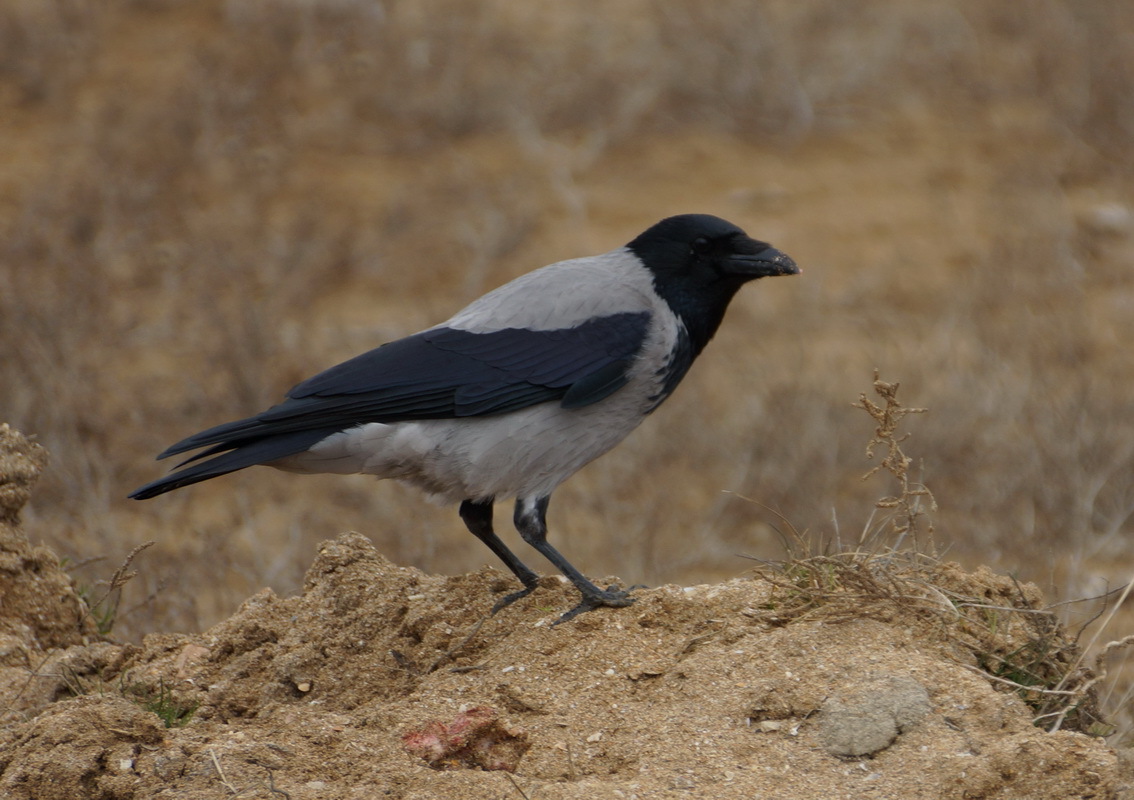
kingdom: Animalia
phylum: Chordata
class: Aves
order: Passeriformes
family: Corvidae
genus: Corvus
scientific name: Corvus cornix
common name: Hooded crow
